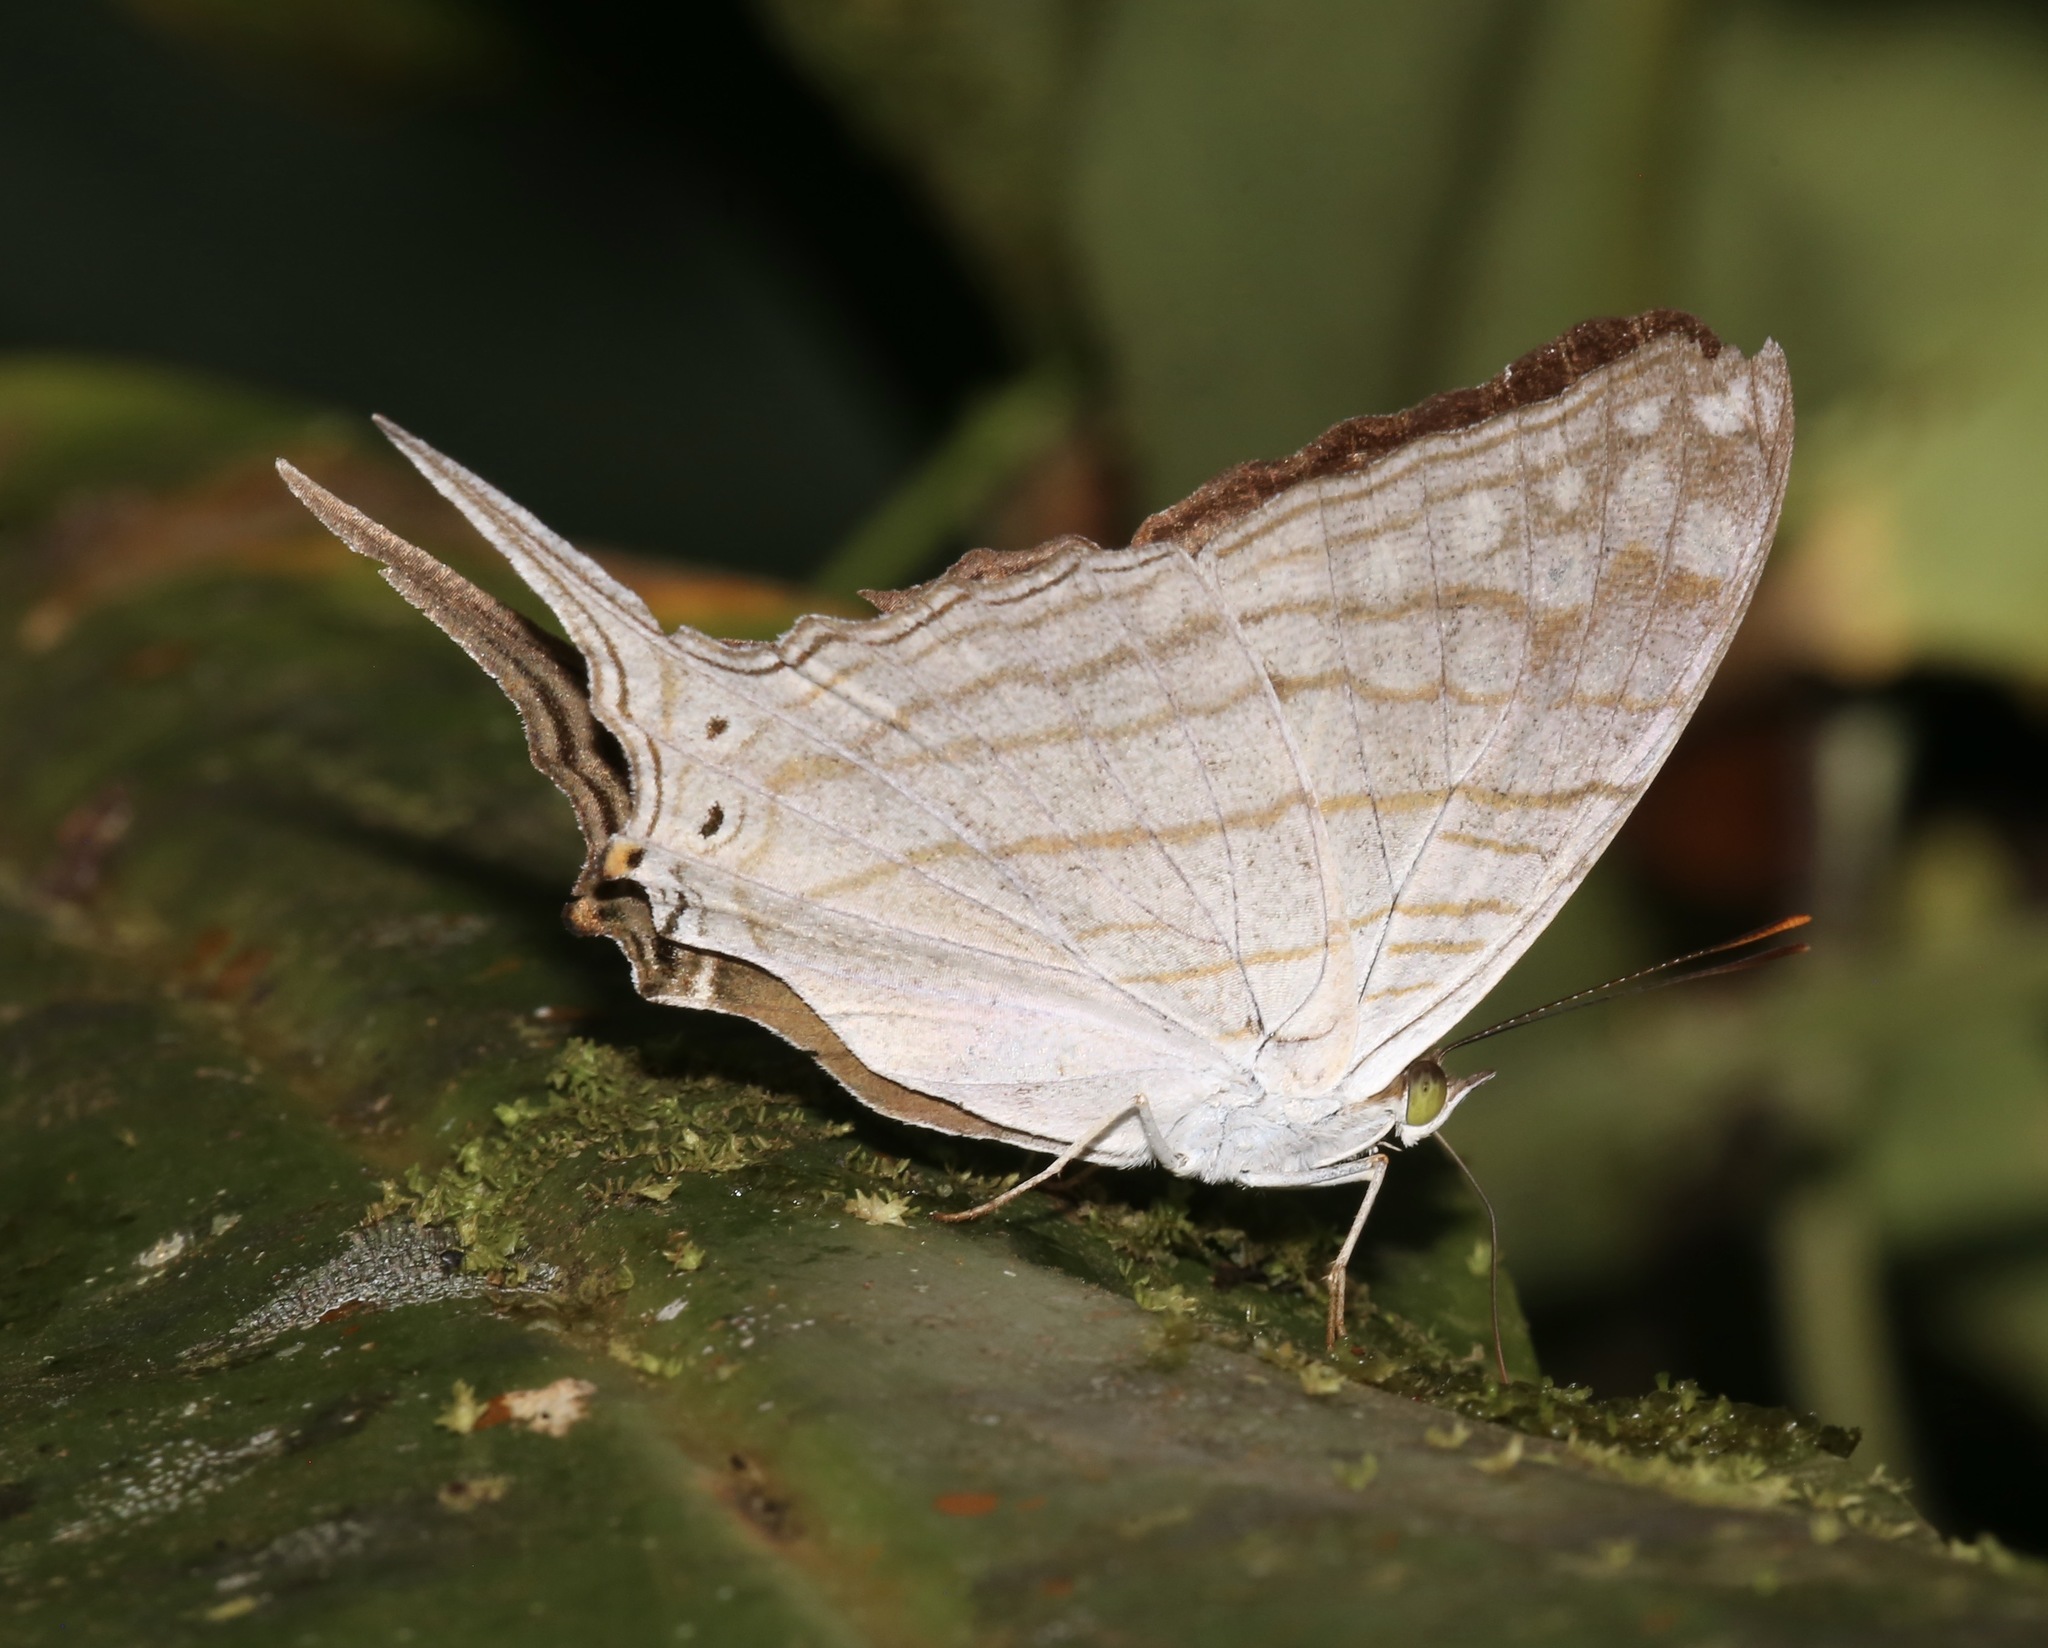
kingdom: Animalia
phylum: Arthropoda
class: Insecta
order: Lepidoptera
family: Nymphalidae
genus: Marpesia
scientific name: Marpesia merops
